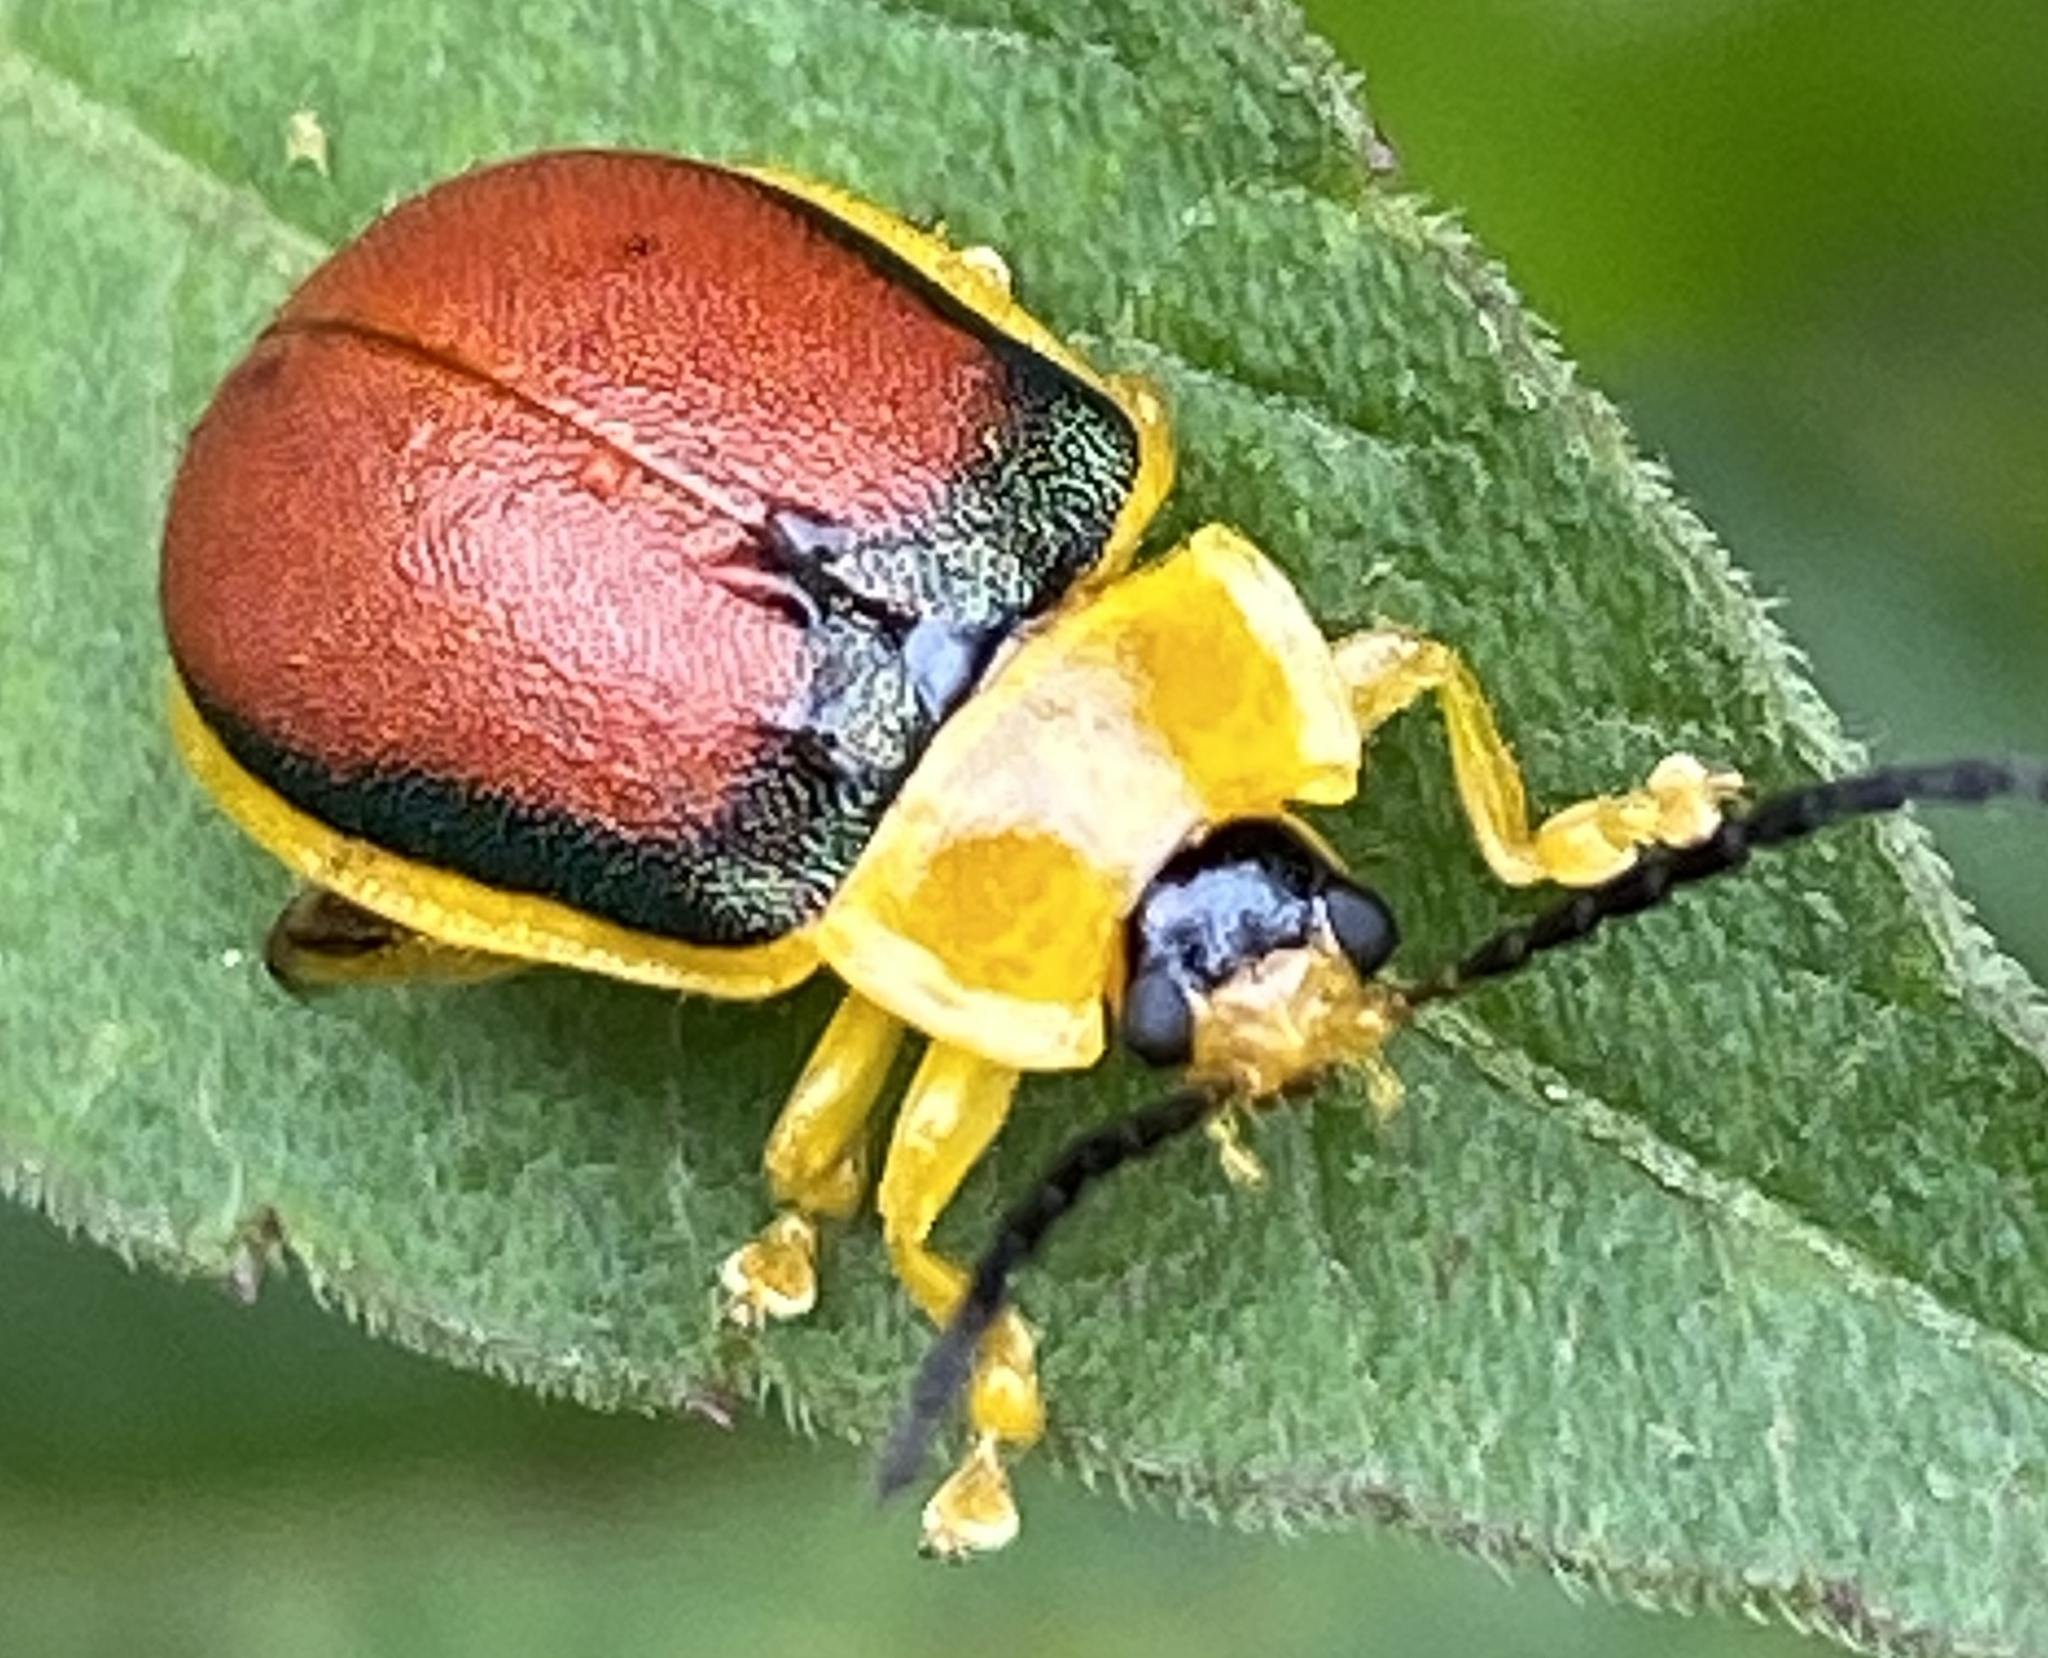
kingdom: Animalia
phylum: Arthropoda
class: Insecta
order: Coleoptera
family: Chrysomelidae
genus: Paranaita
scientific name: Paranaita
